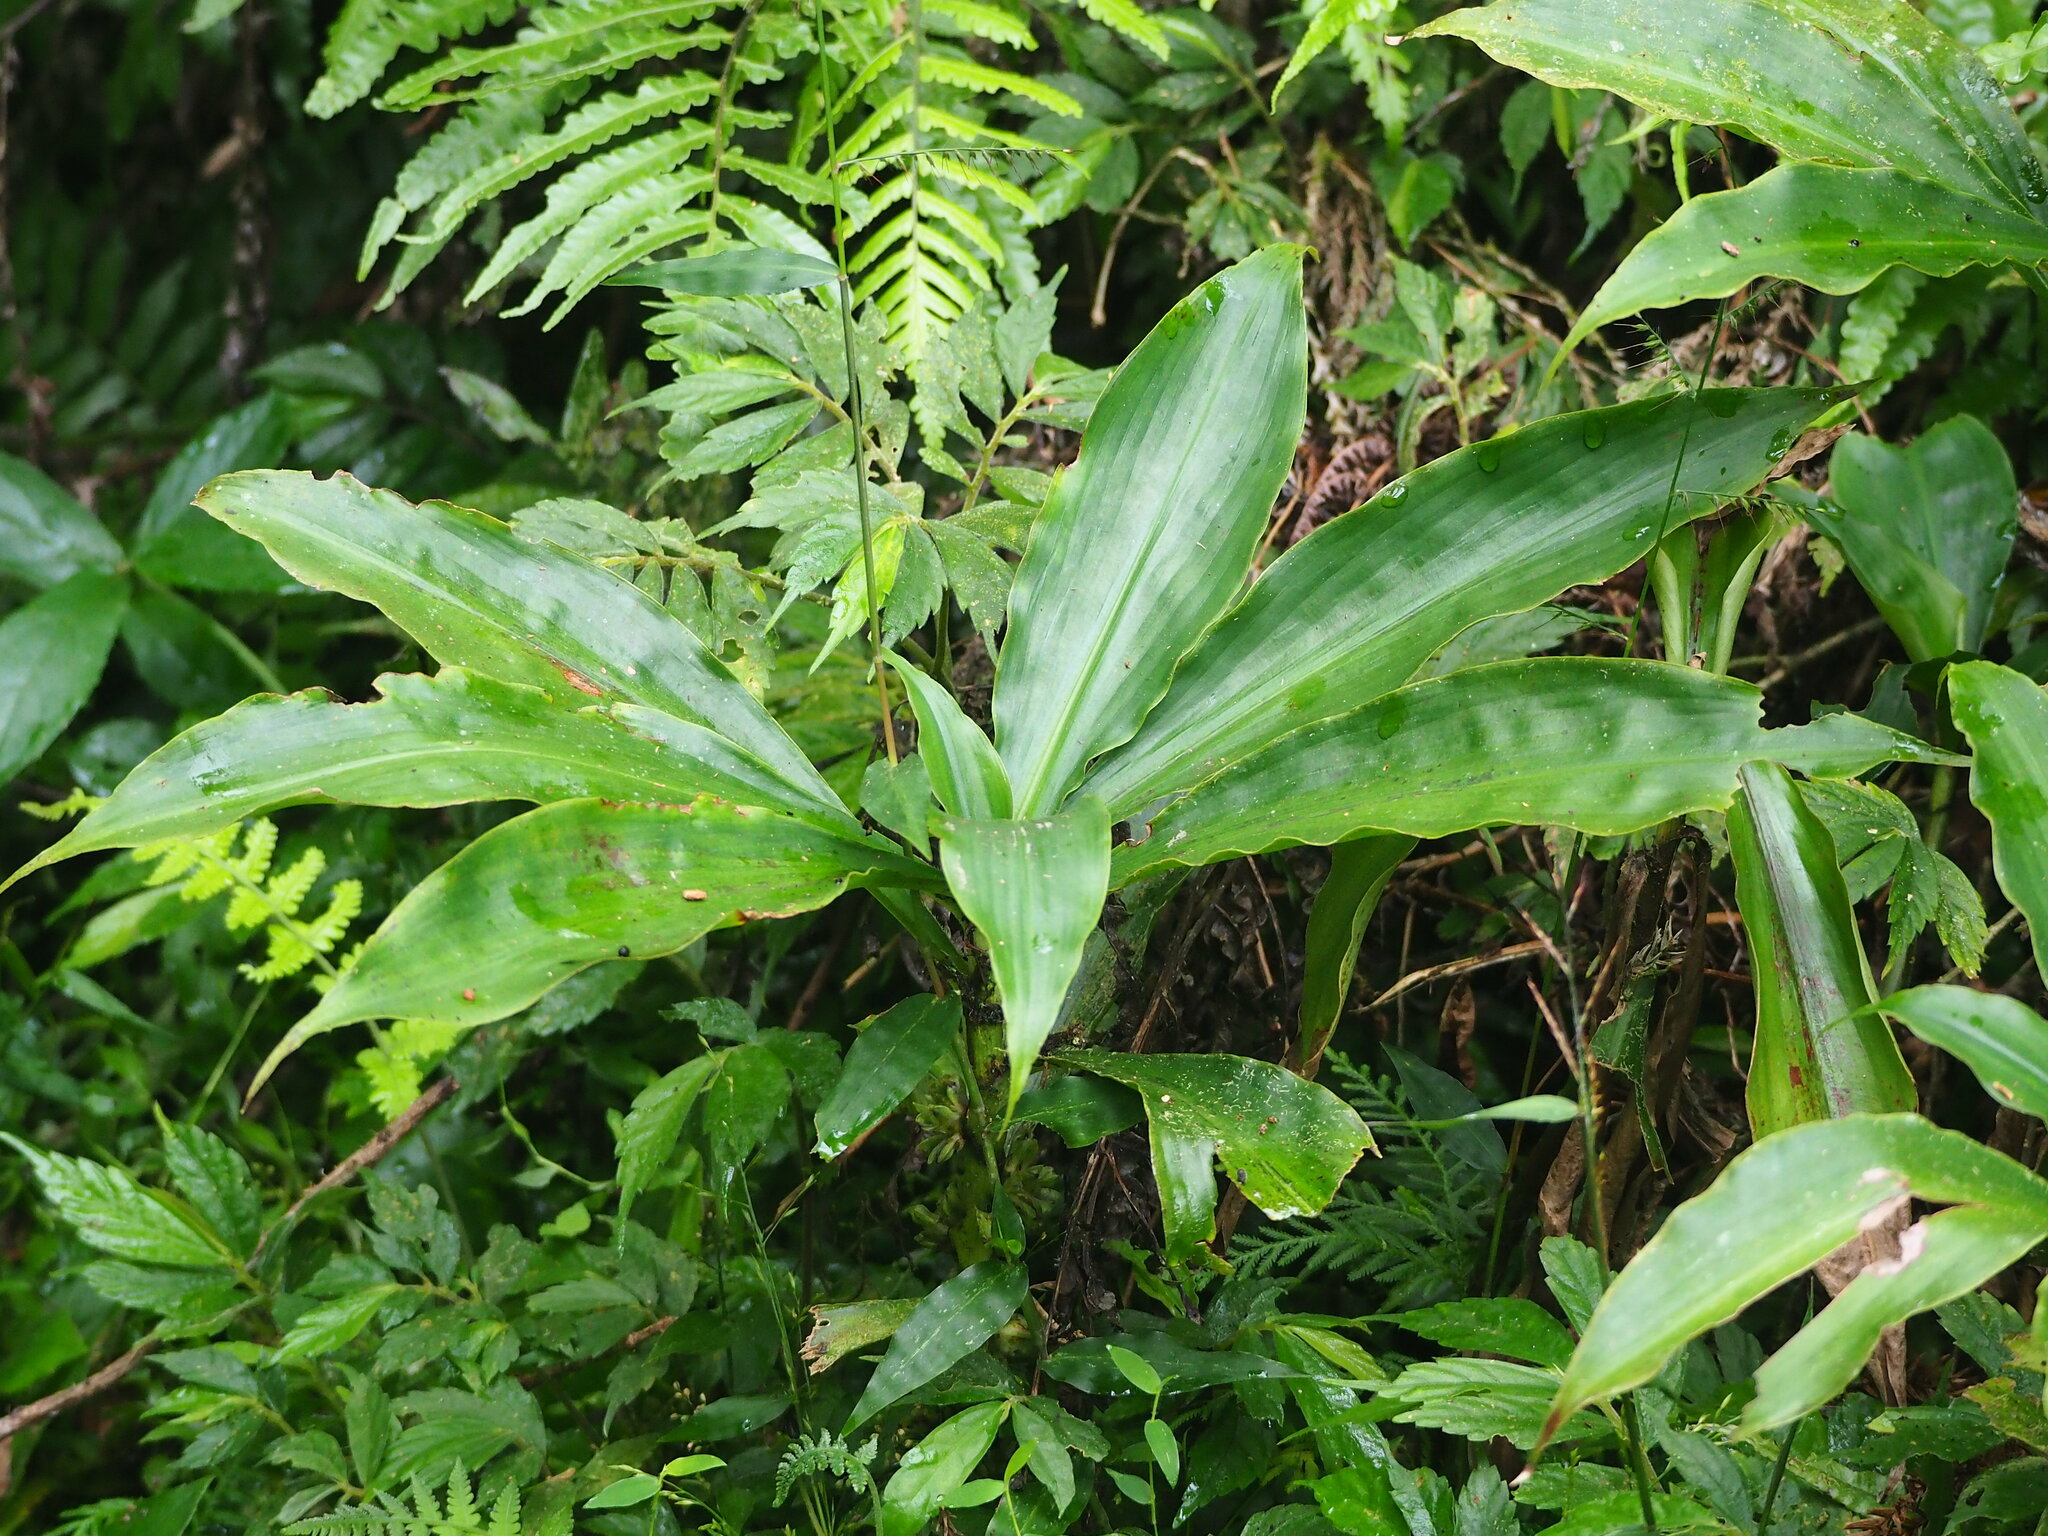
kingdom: Plantae
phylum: Tracheophyta
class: Liliopsida
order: Commelinales
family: Commelinaceae
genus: Amischotolype
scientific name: Amischotolype glabrata
